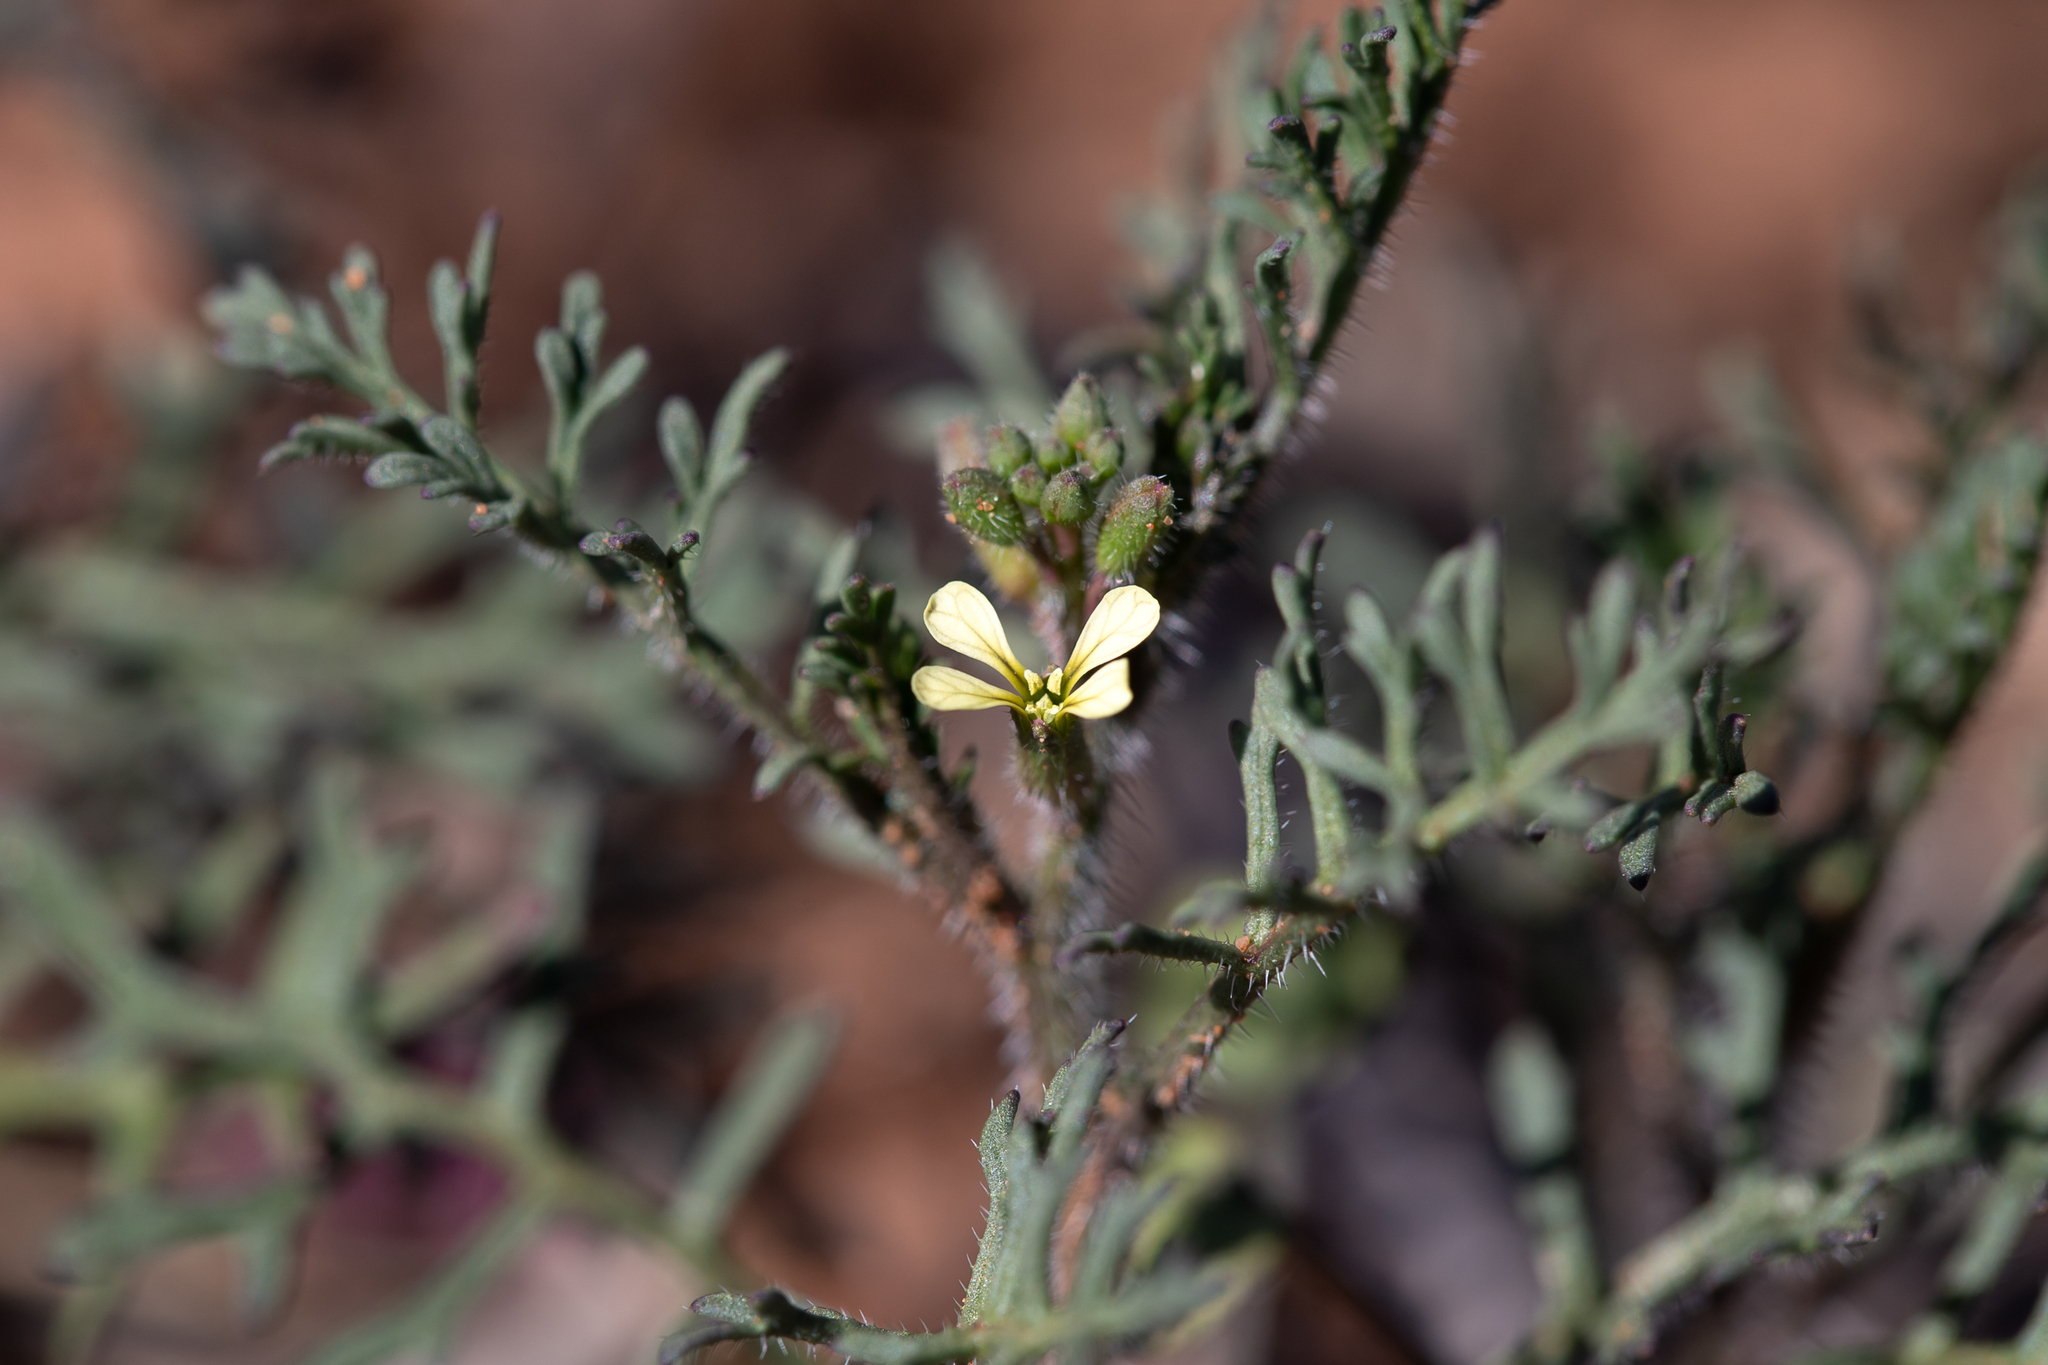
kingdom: Plantae
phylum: Tracheophyta
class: Magnoliopsida
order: Brassicales
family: Brassicaceae
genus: Carrichtera
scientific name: Carrichtera annua
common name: Cress rocket
